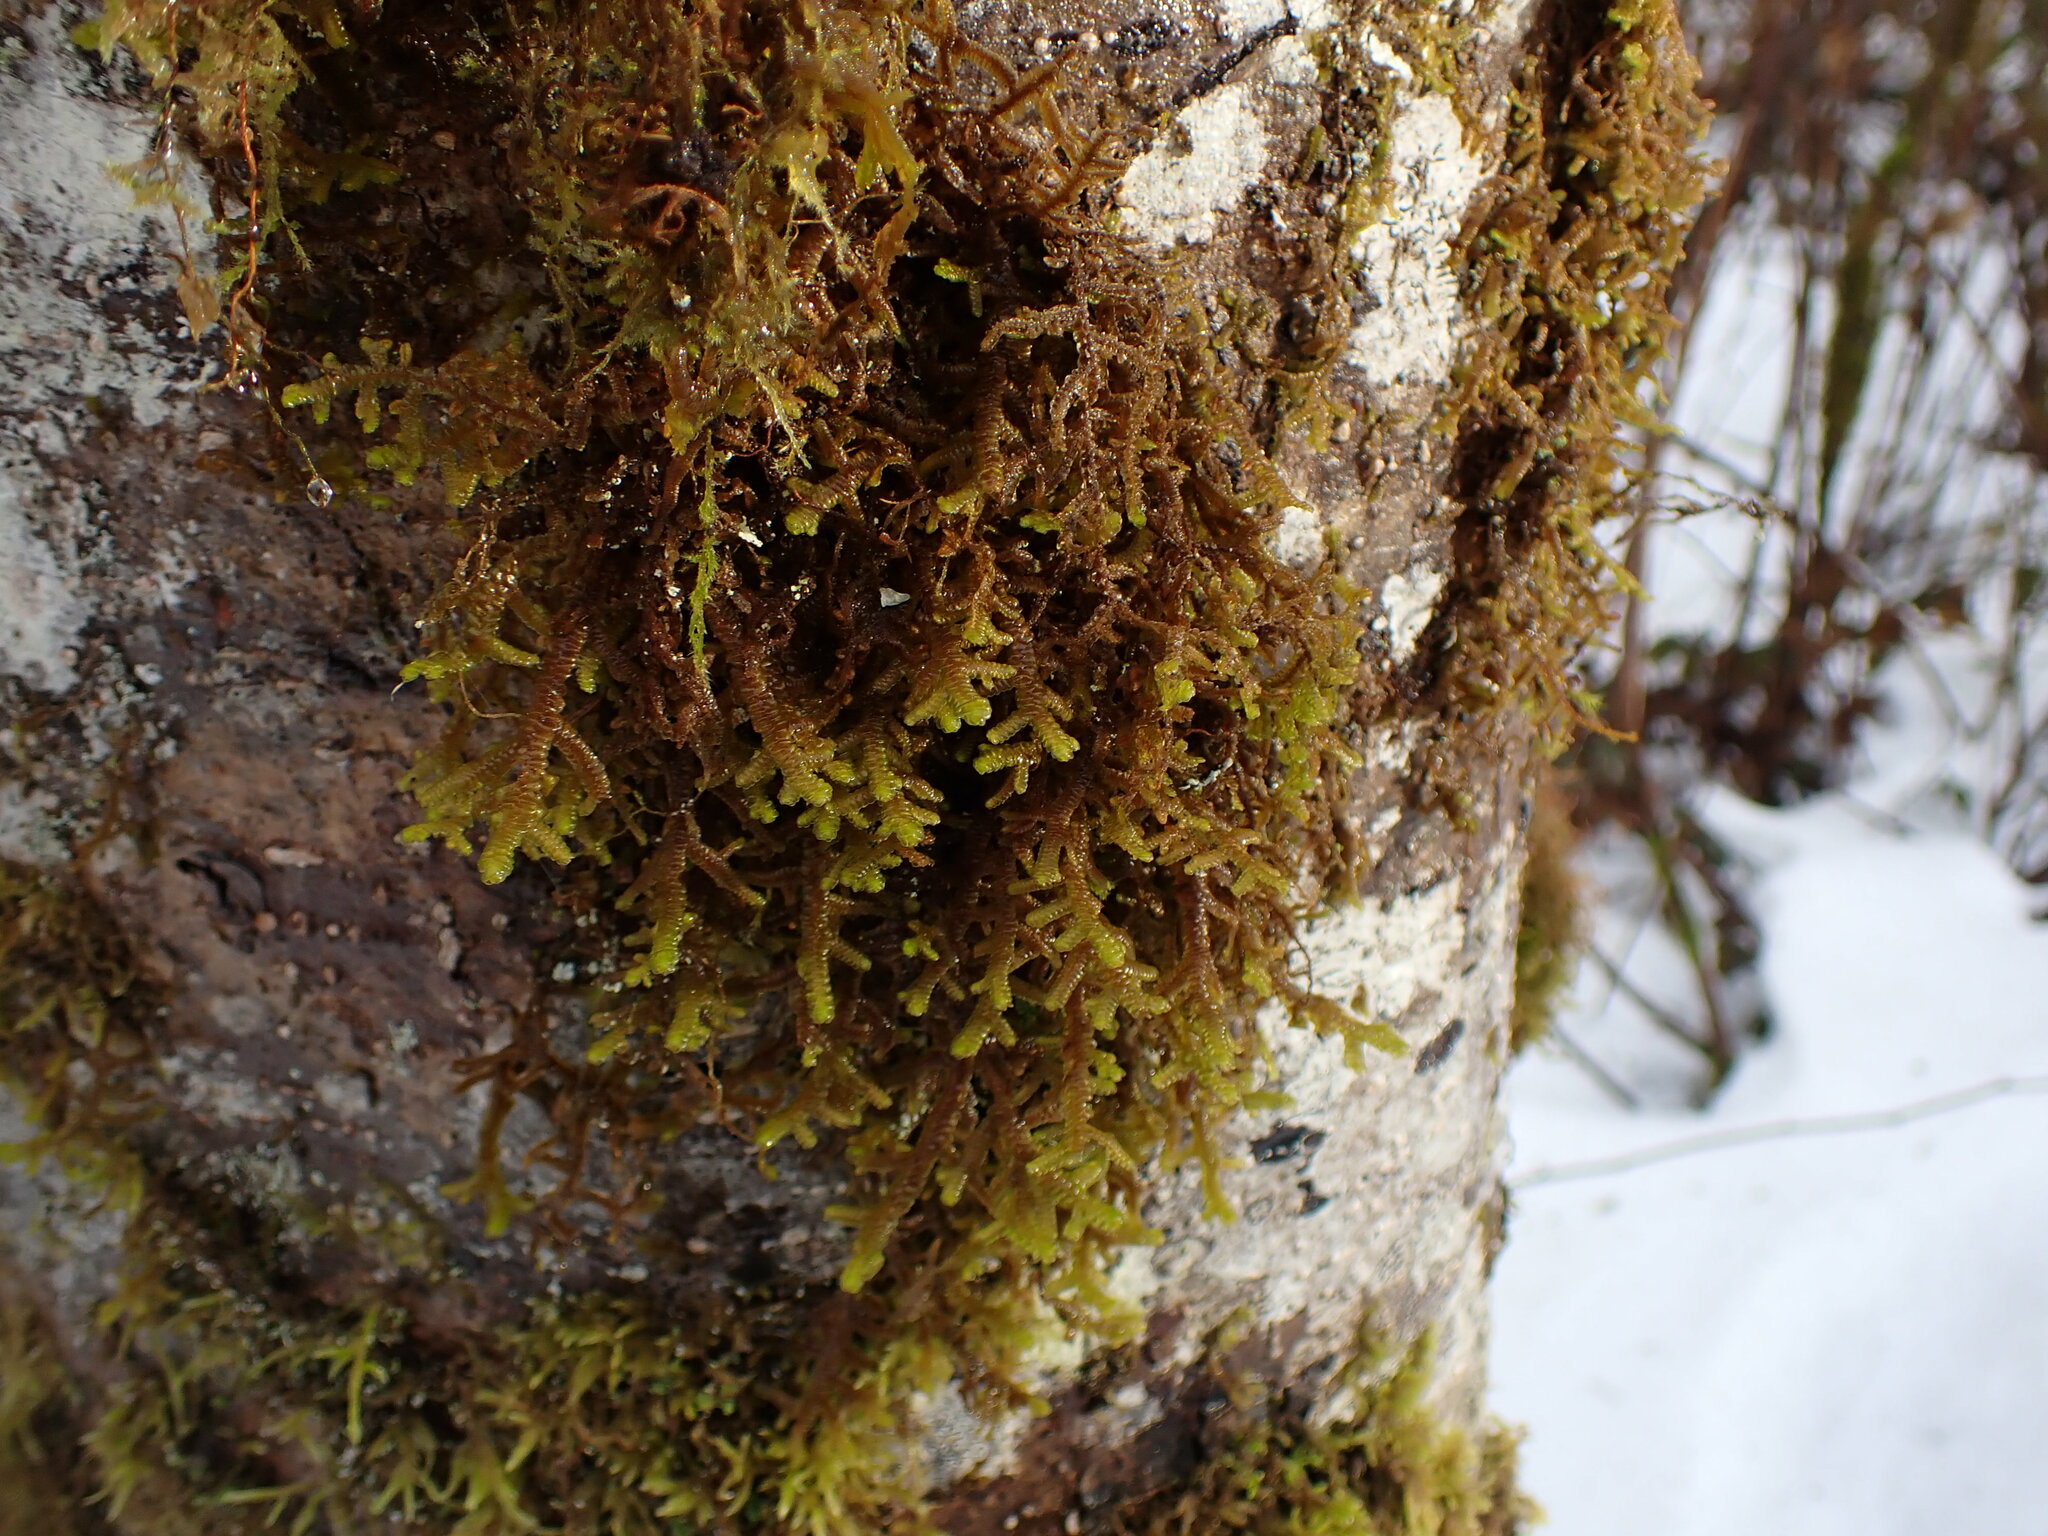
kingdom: Plantae
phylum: Marchantiophyta
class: Jungermanniopsida
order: Porellales
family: Porellaceae
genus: Porella
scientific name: Porella navicularis
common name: Tree ruffle liverwort
